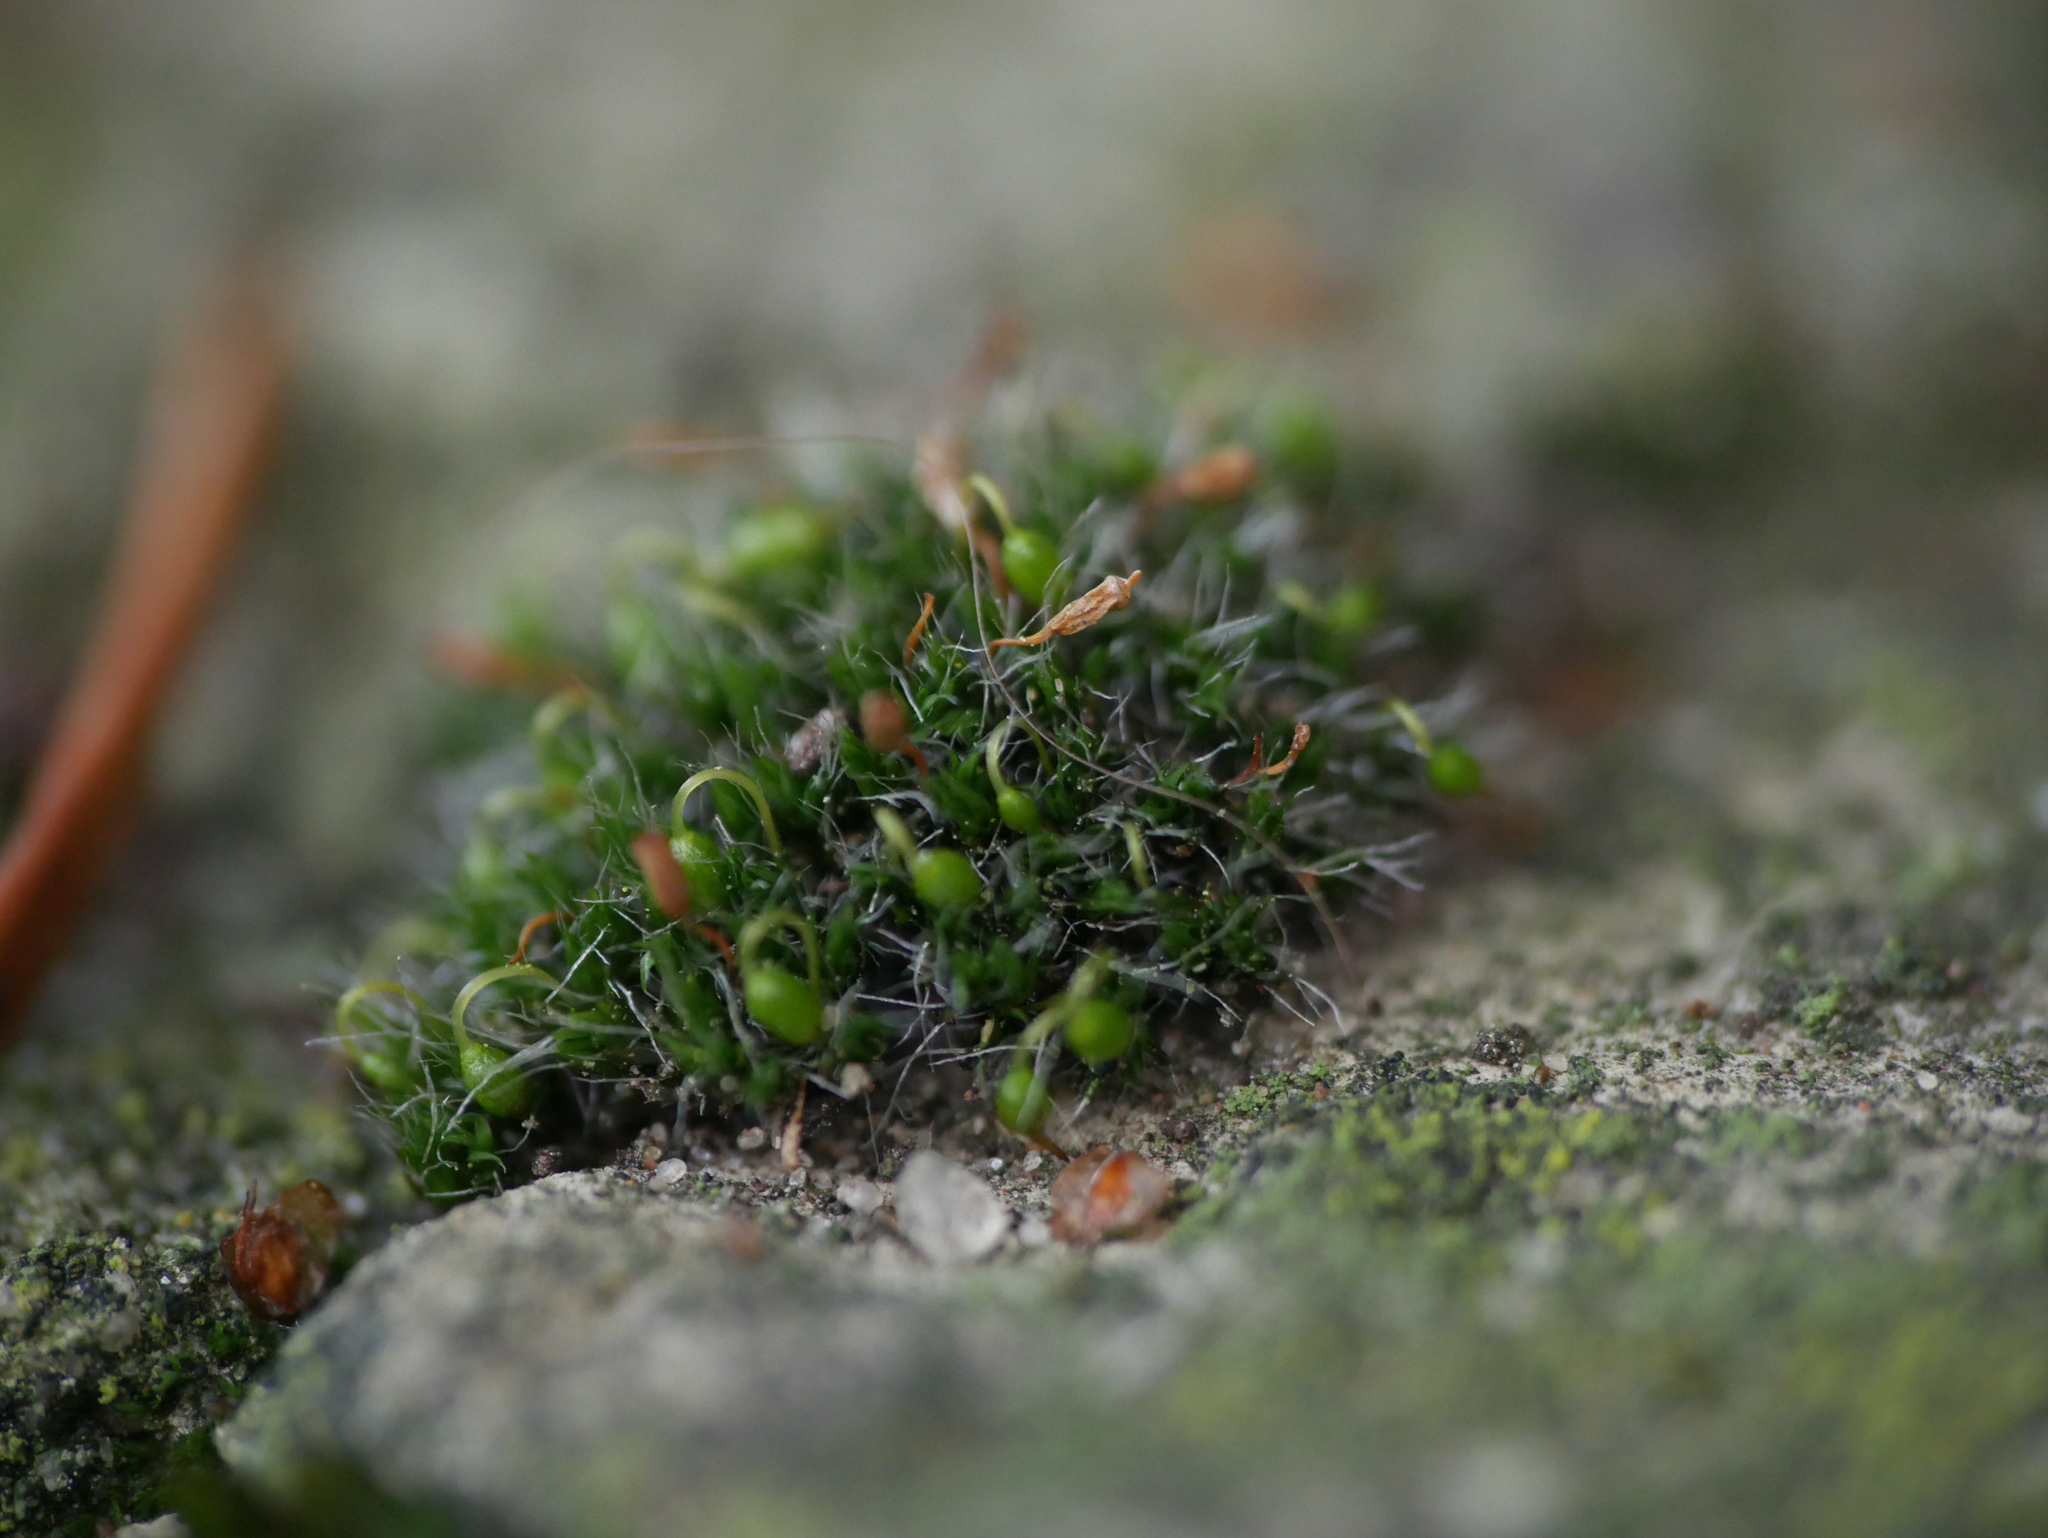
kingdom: Plantae
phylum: Bryophyta
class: Bryopsida
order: Grimmiales
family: Grimmiaceae
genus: Grimmia
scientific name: Grimmia pulvinata
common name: Grey-cushioned grimmia
